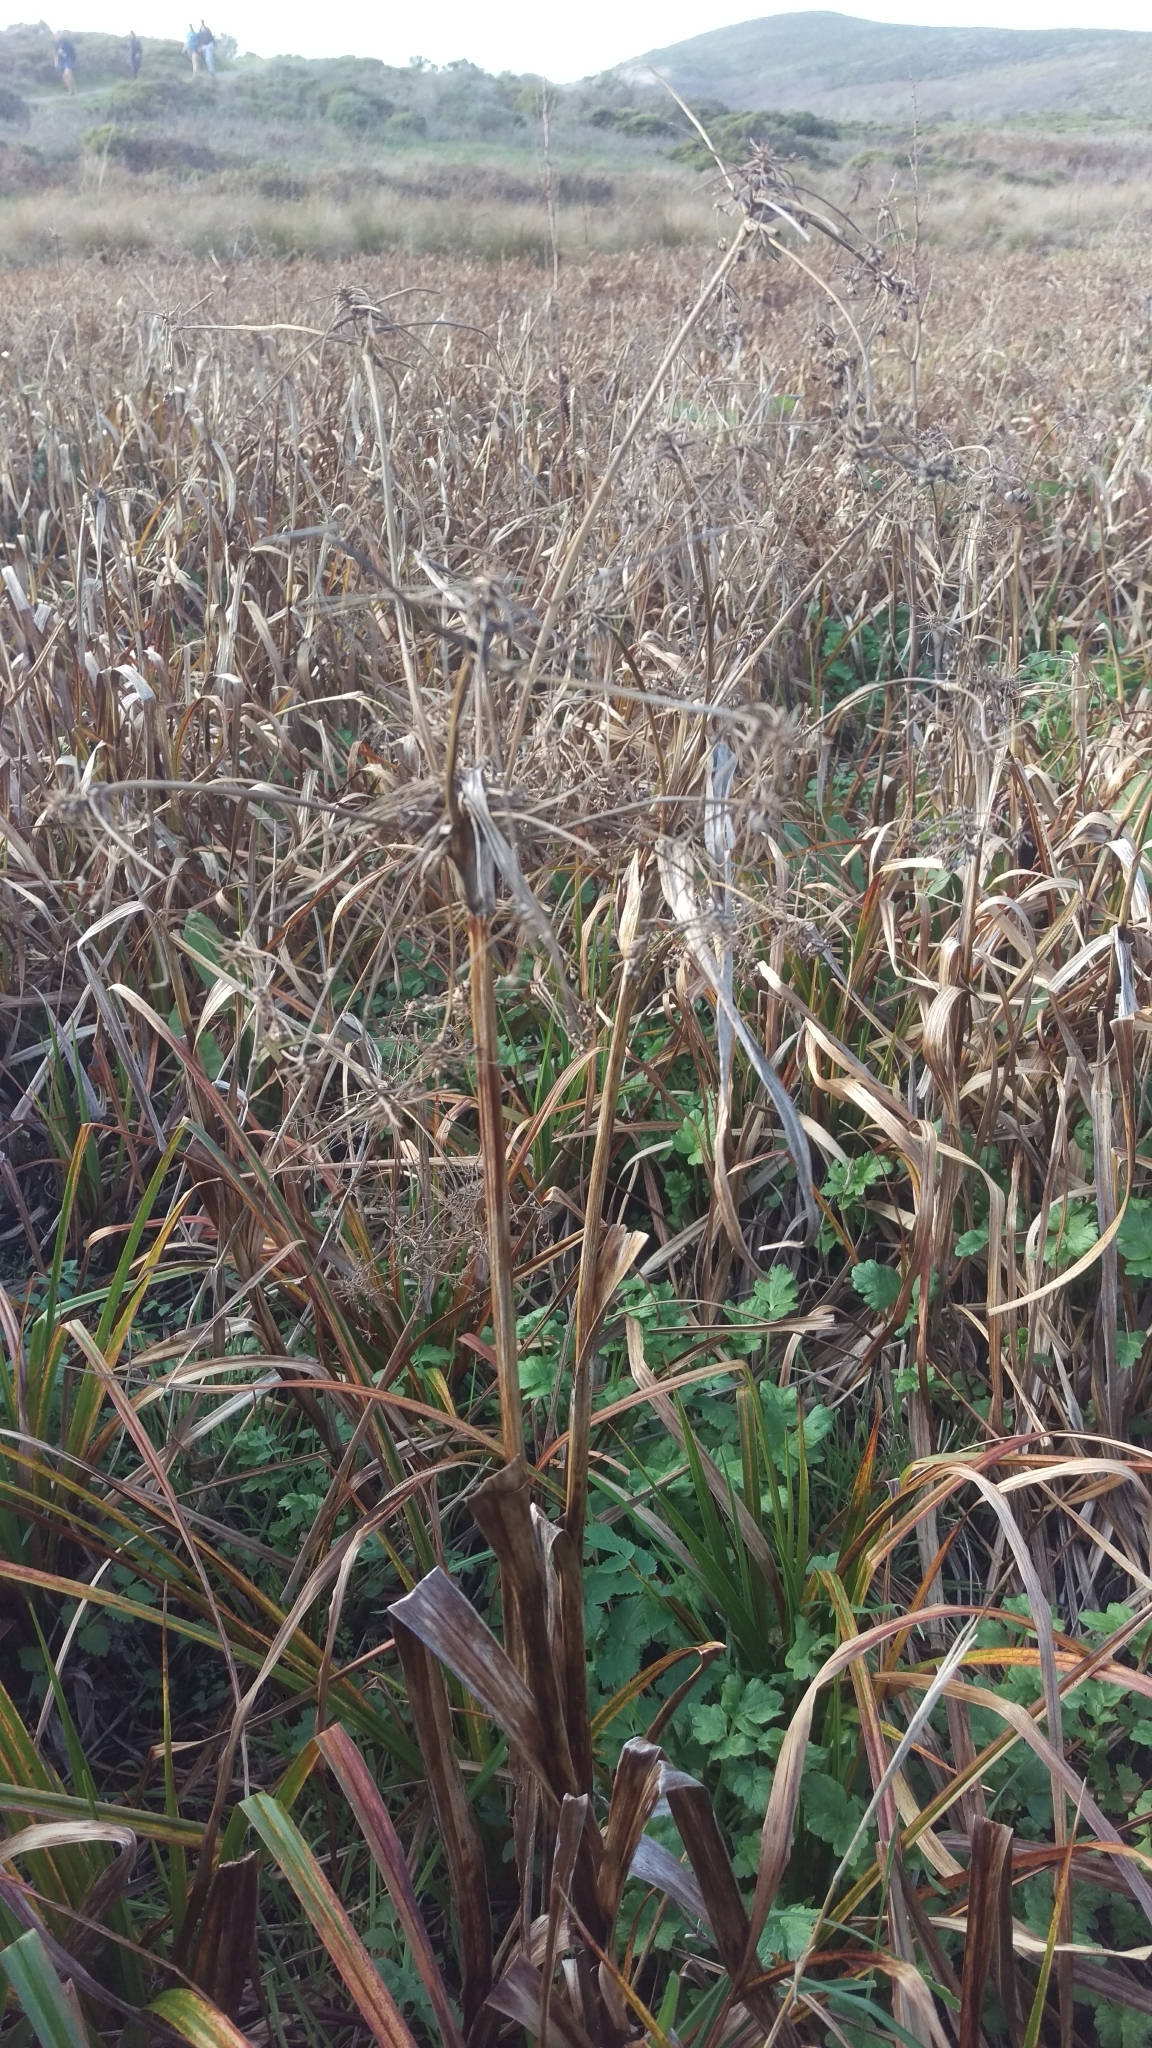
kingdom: Plantae
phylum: Tracheophyta
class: Liliopsida
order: Poales
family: Cyperaceae
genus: Scirpus
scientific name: Scirpus microcarpus
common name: Panicled bulrush
